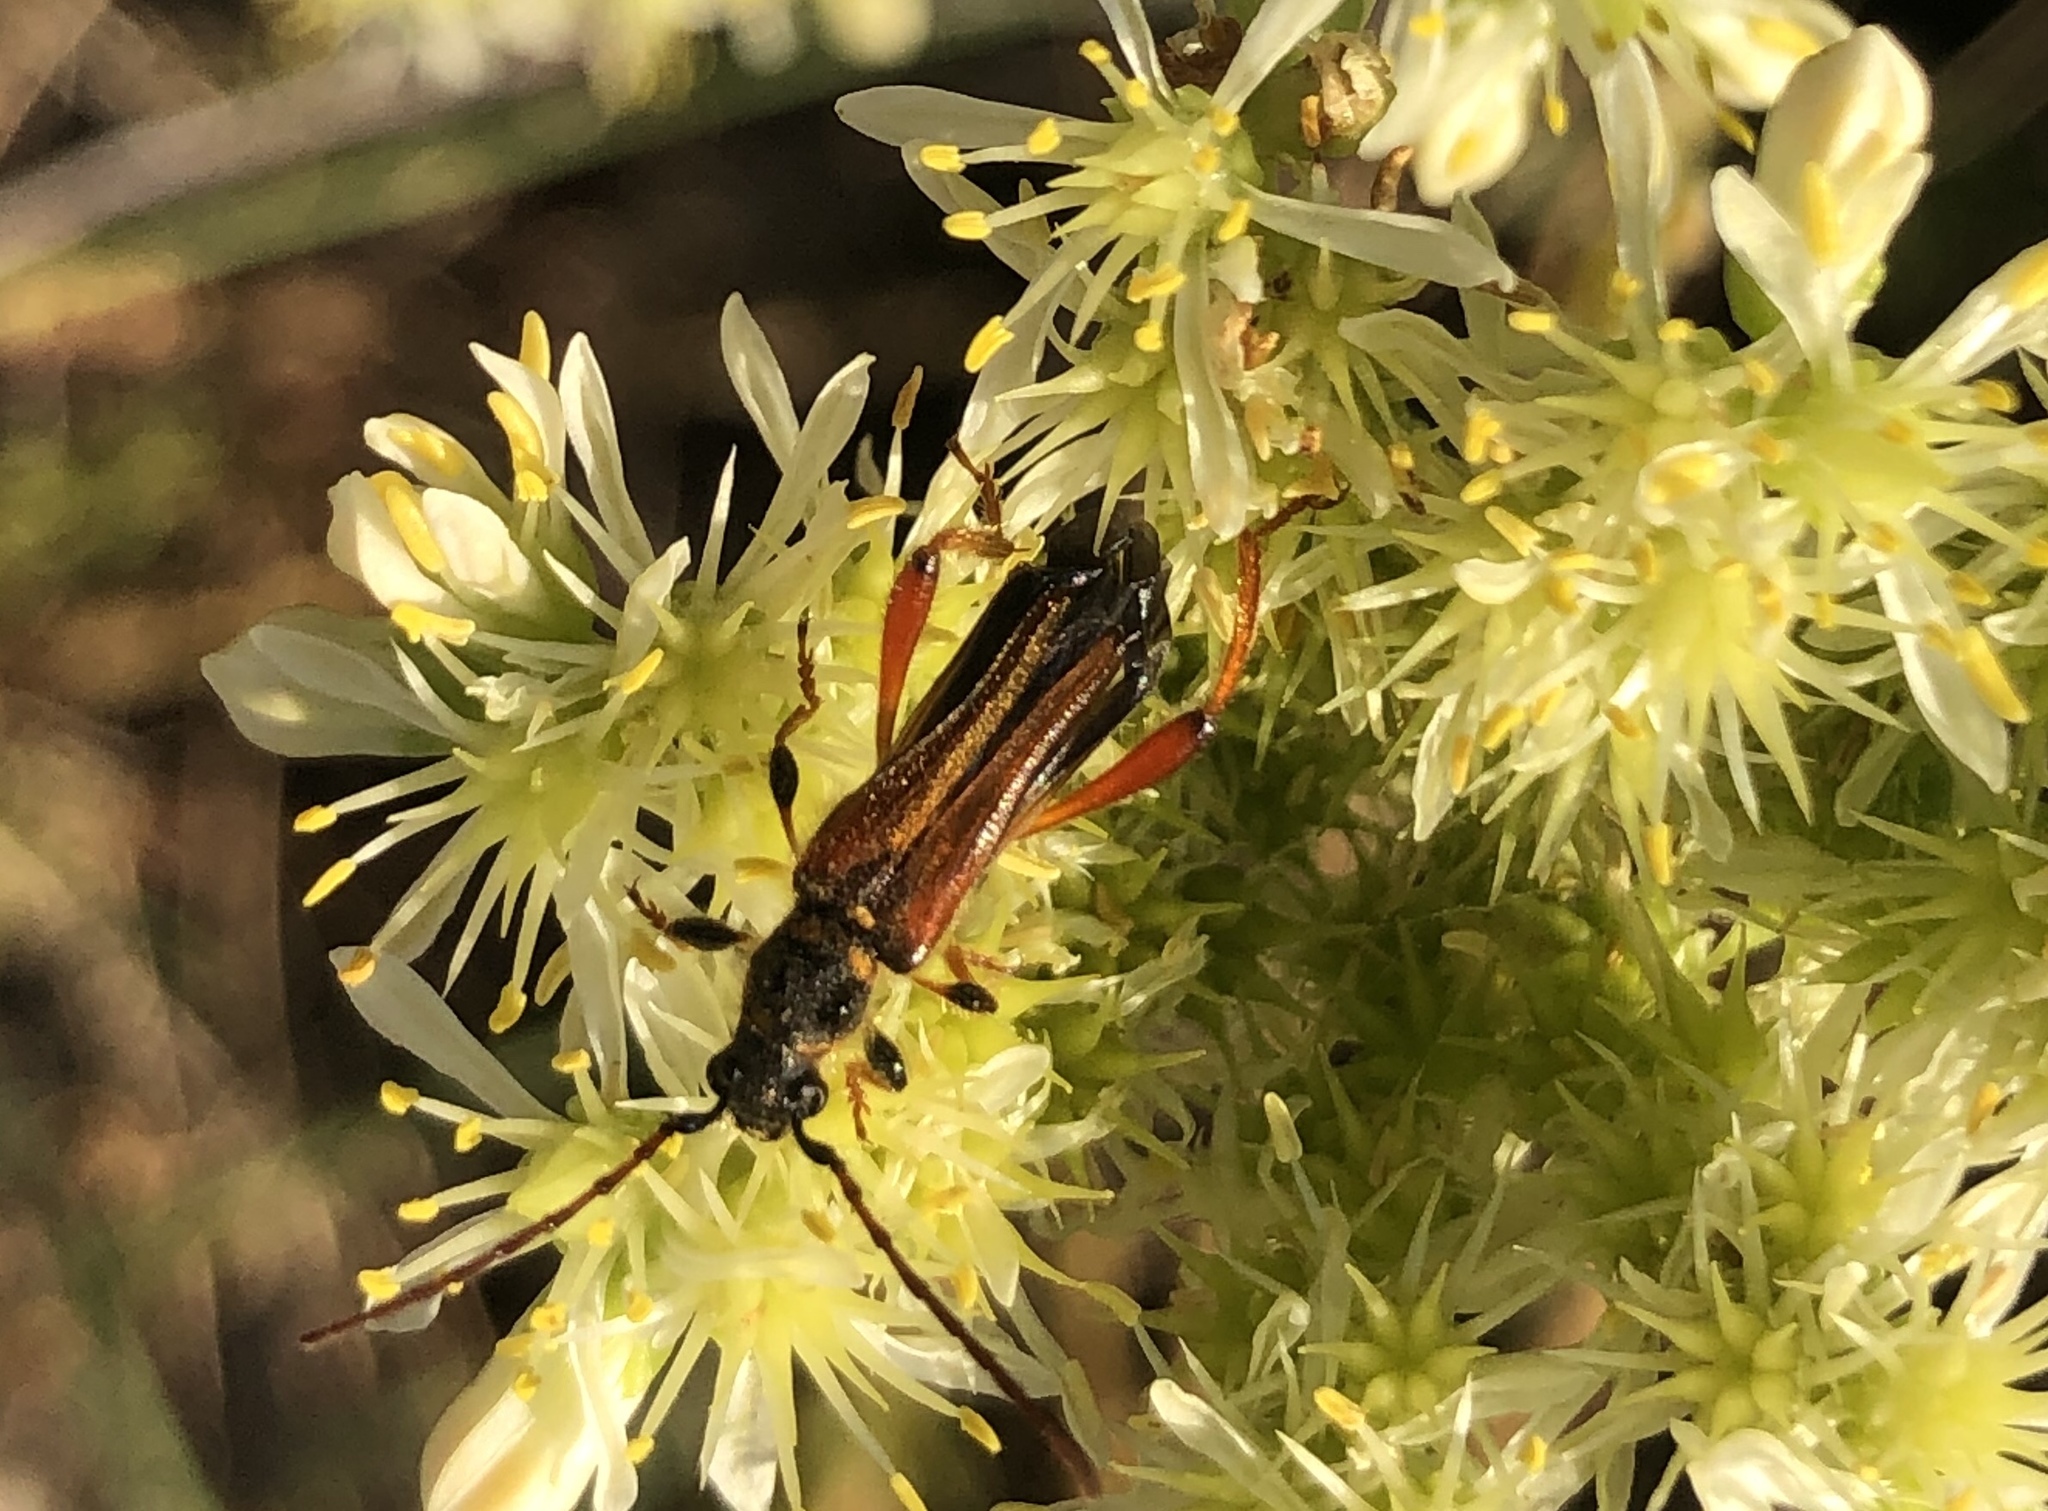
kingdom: Animalia
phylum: Arthropoda
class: Insecta
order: Coleoptera
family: Cerambycidae
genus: Stenopterus
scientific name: Stenopterus rufus
